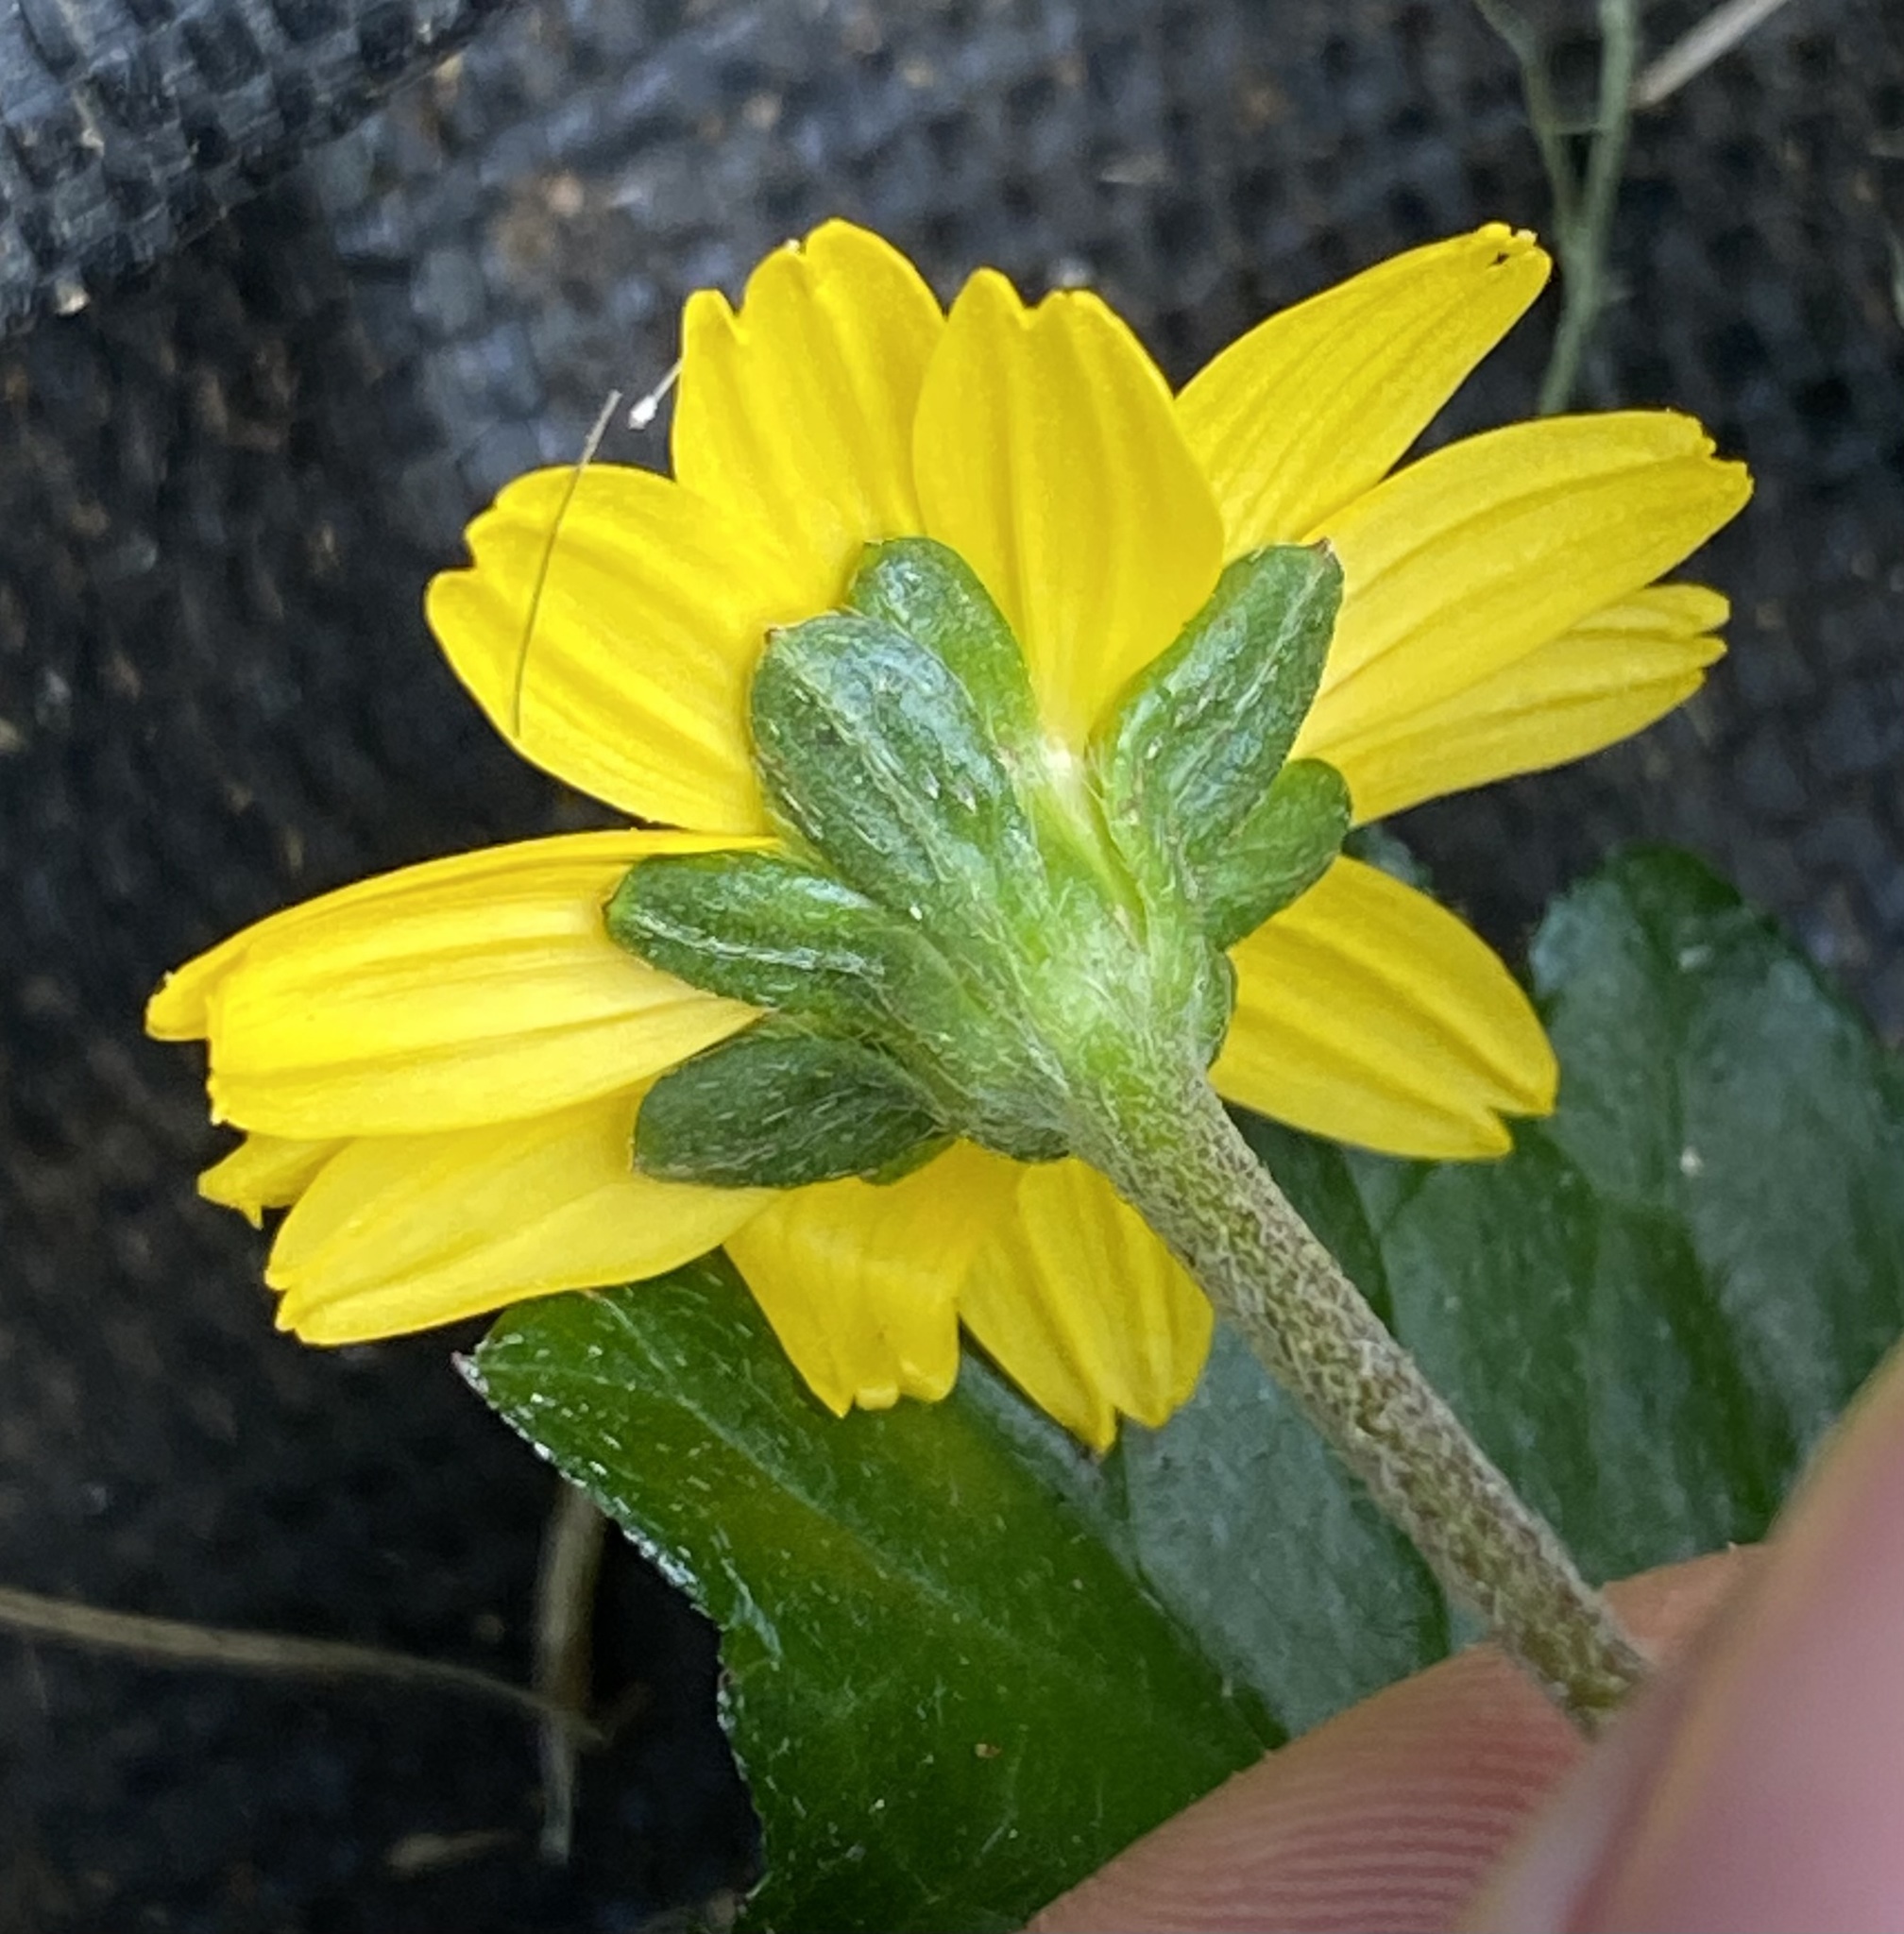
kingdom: Plantae
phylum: Tracheophyta
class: Magnoliopsida
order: Asterales
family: Asteraceae
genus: Sphagneticola
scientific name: Sphagneticola trilobata
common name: Bay biscayne creeping-oxeye
